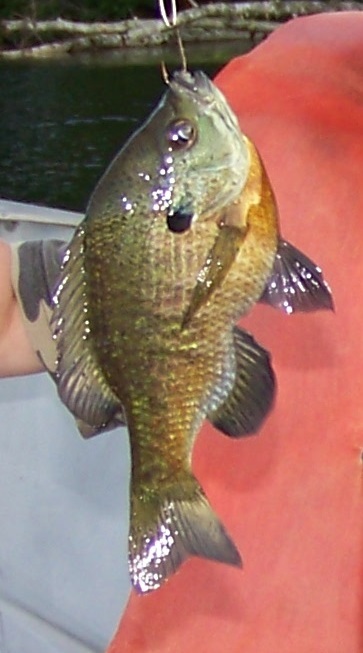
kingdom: Animalia
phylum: Chordata
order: Perciformes
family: Centrarchidae
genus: Lepomis
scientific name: Lepomis macrochirus
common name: Bluegill
